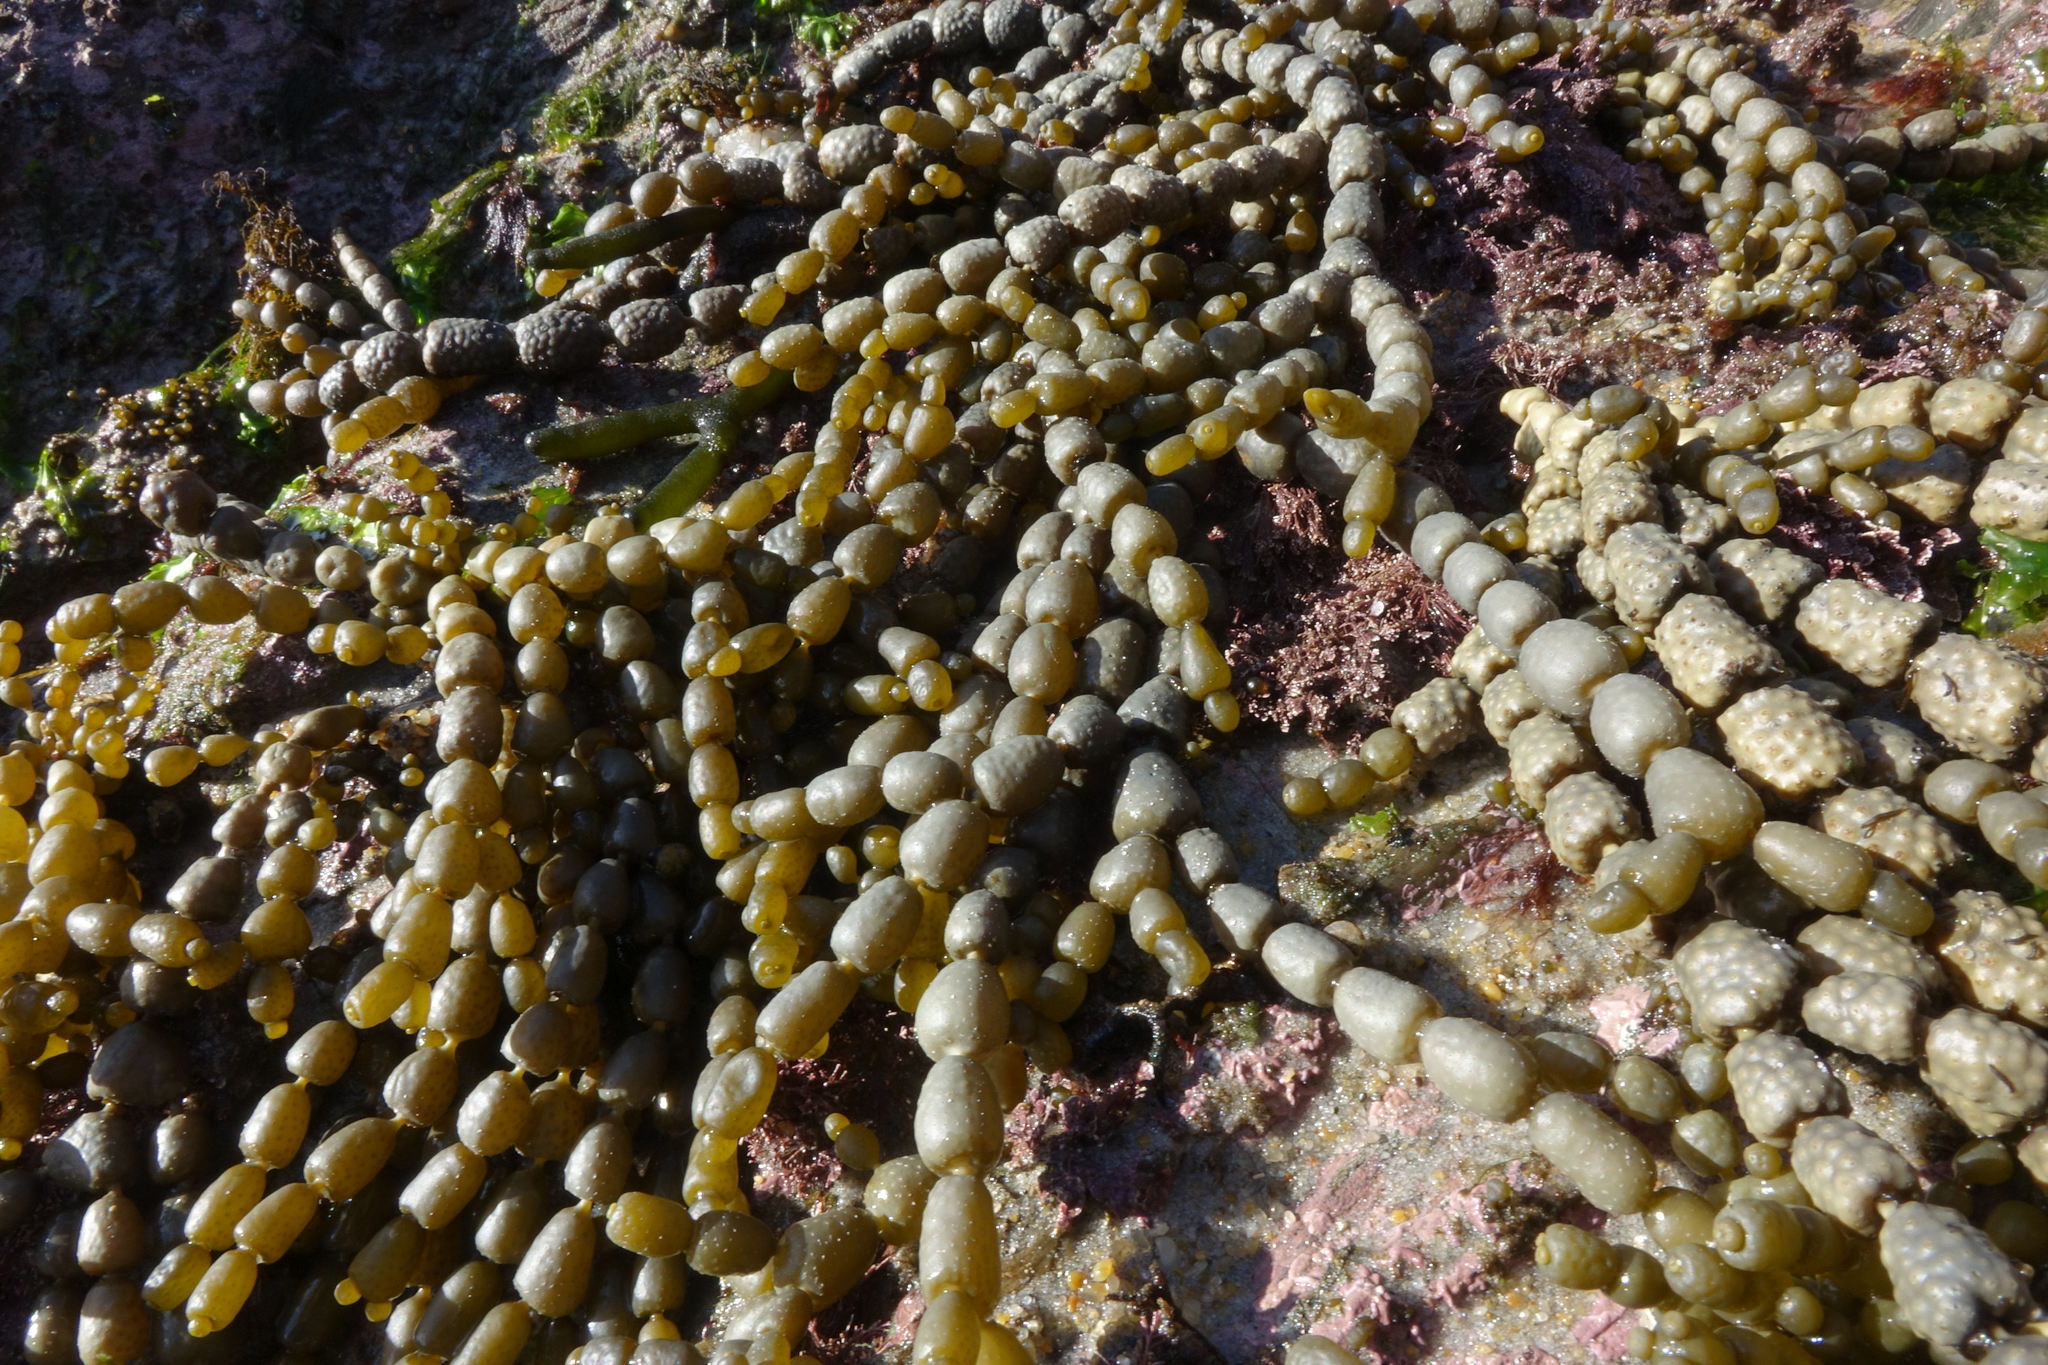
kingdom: Chromista
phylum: Ochrophyta
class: Phaeophyceae
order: Fucales
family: Hormosiraceae
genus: Hormosira
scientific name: Hormosira banksii
